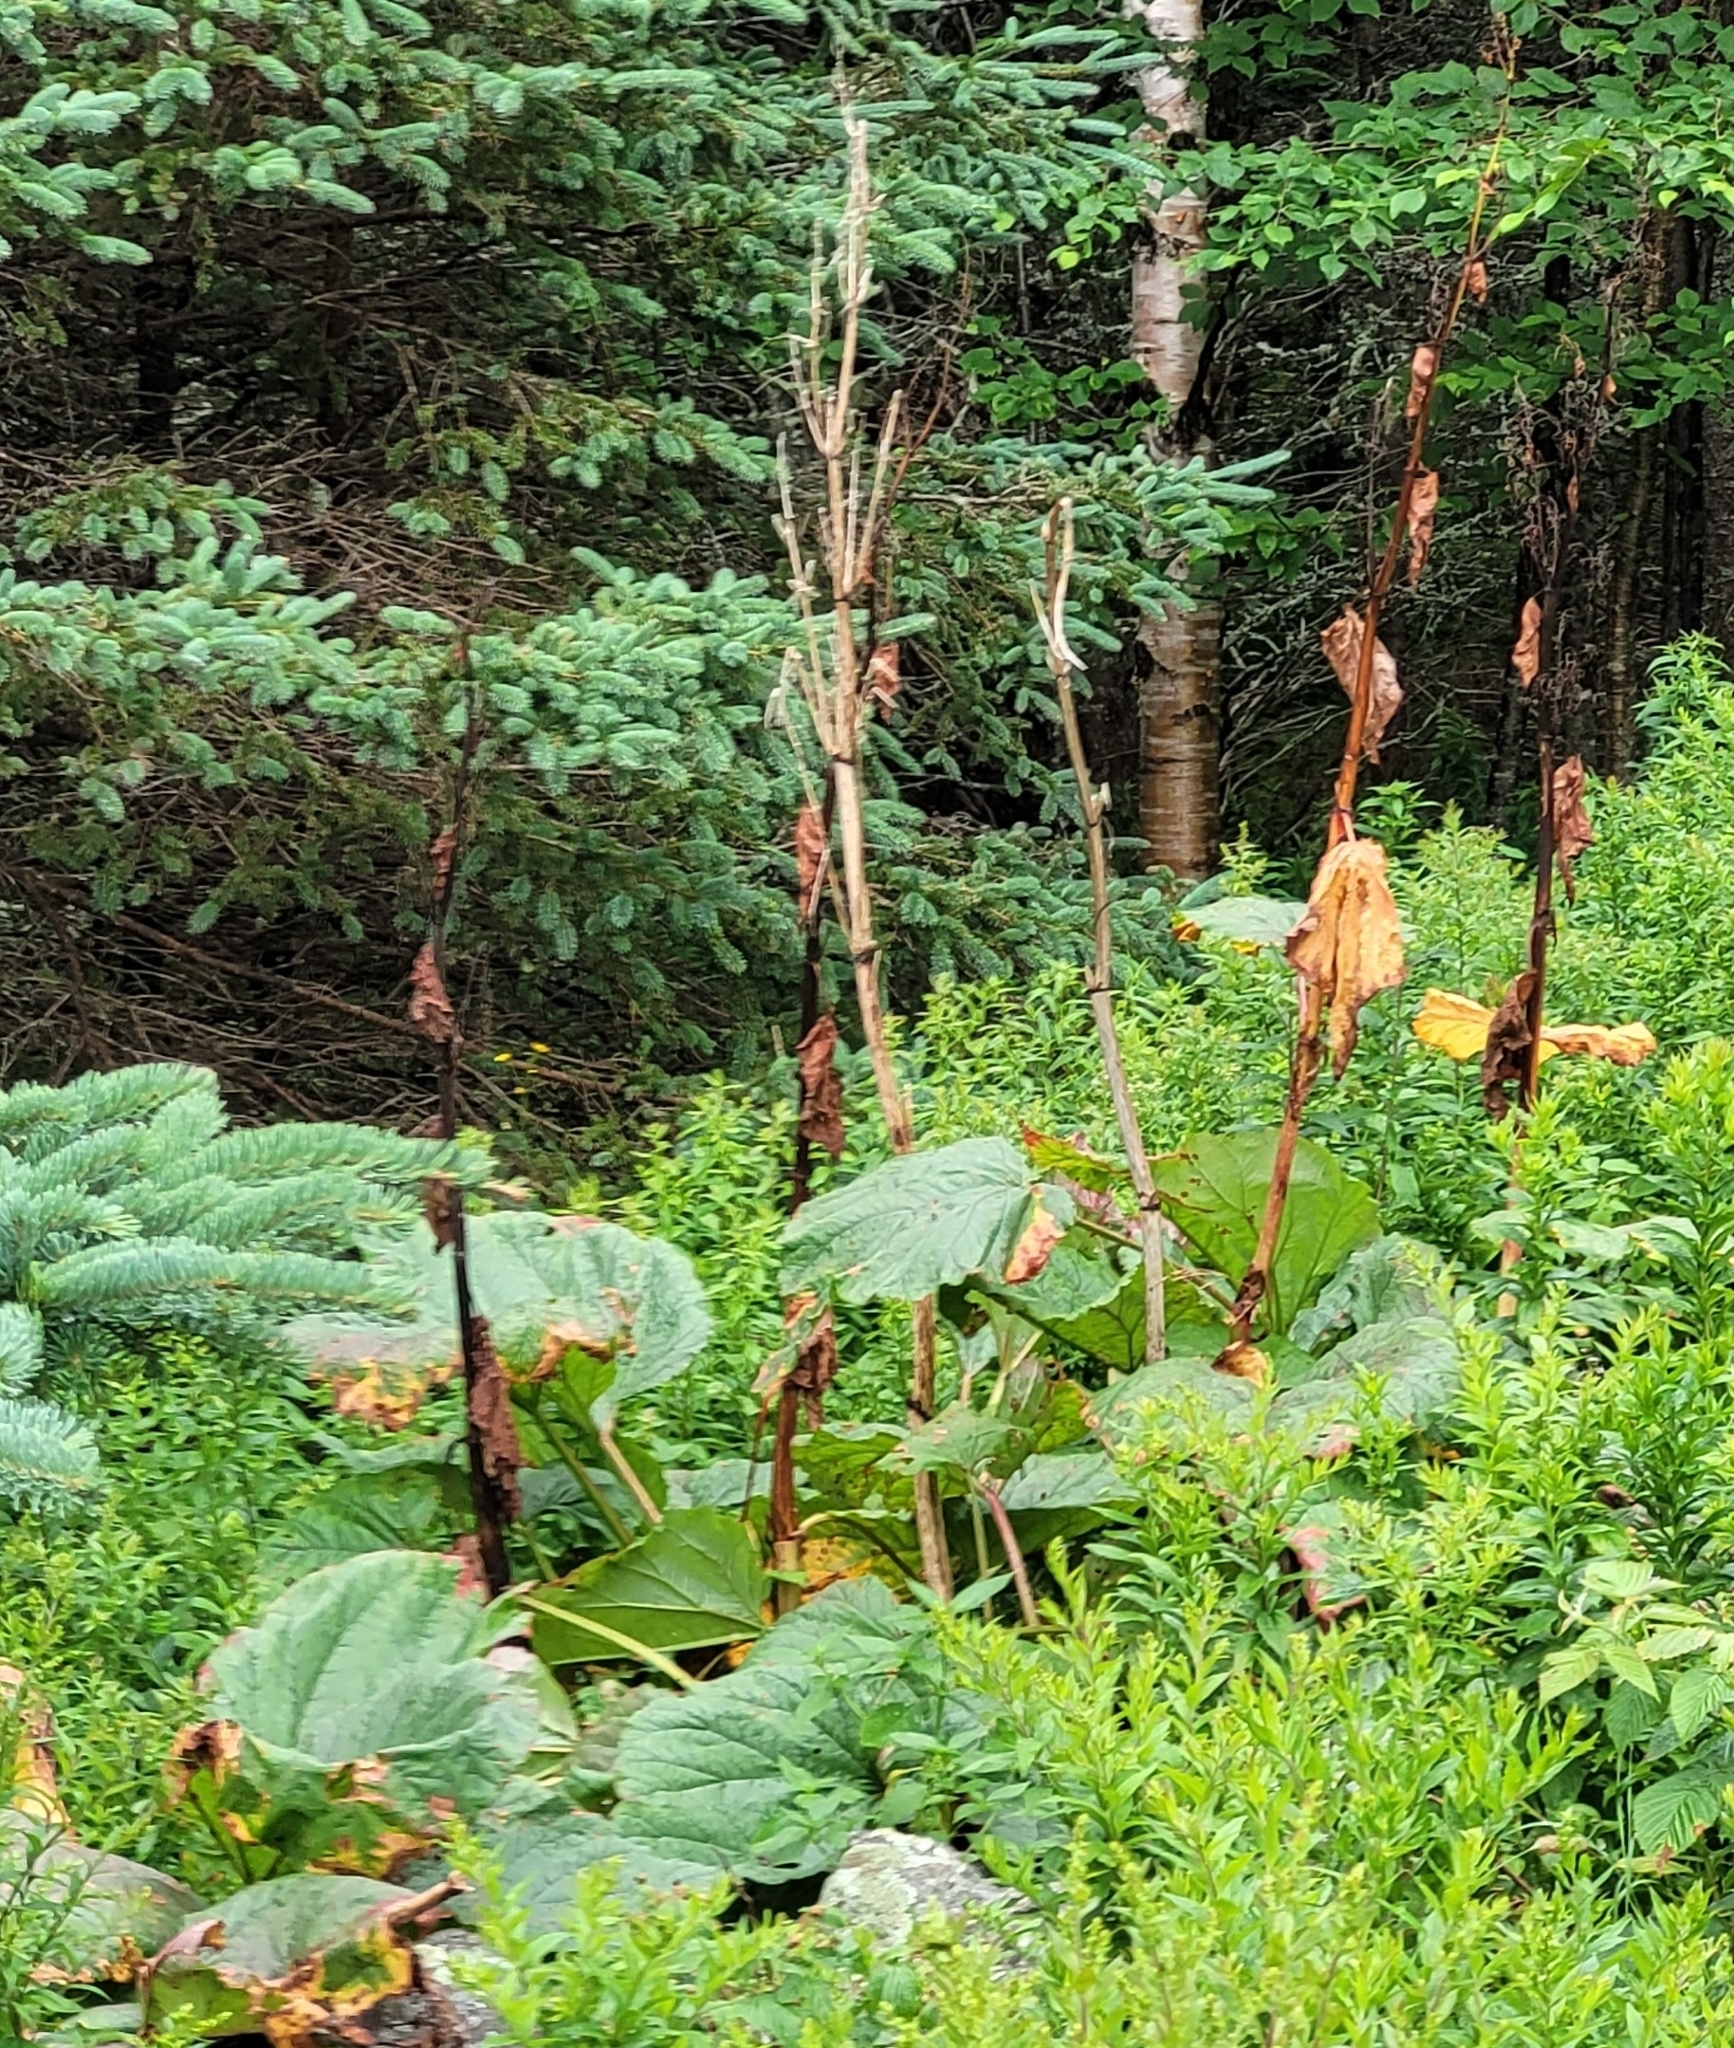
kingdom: Plantae
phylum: Tracheophyta
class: Magnoliopsida
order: Caryophyllales
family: Polygonaceae
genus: Rheum
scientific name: Rheum rhabarbarum
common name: Garden rhubarb
